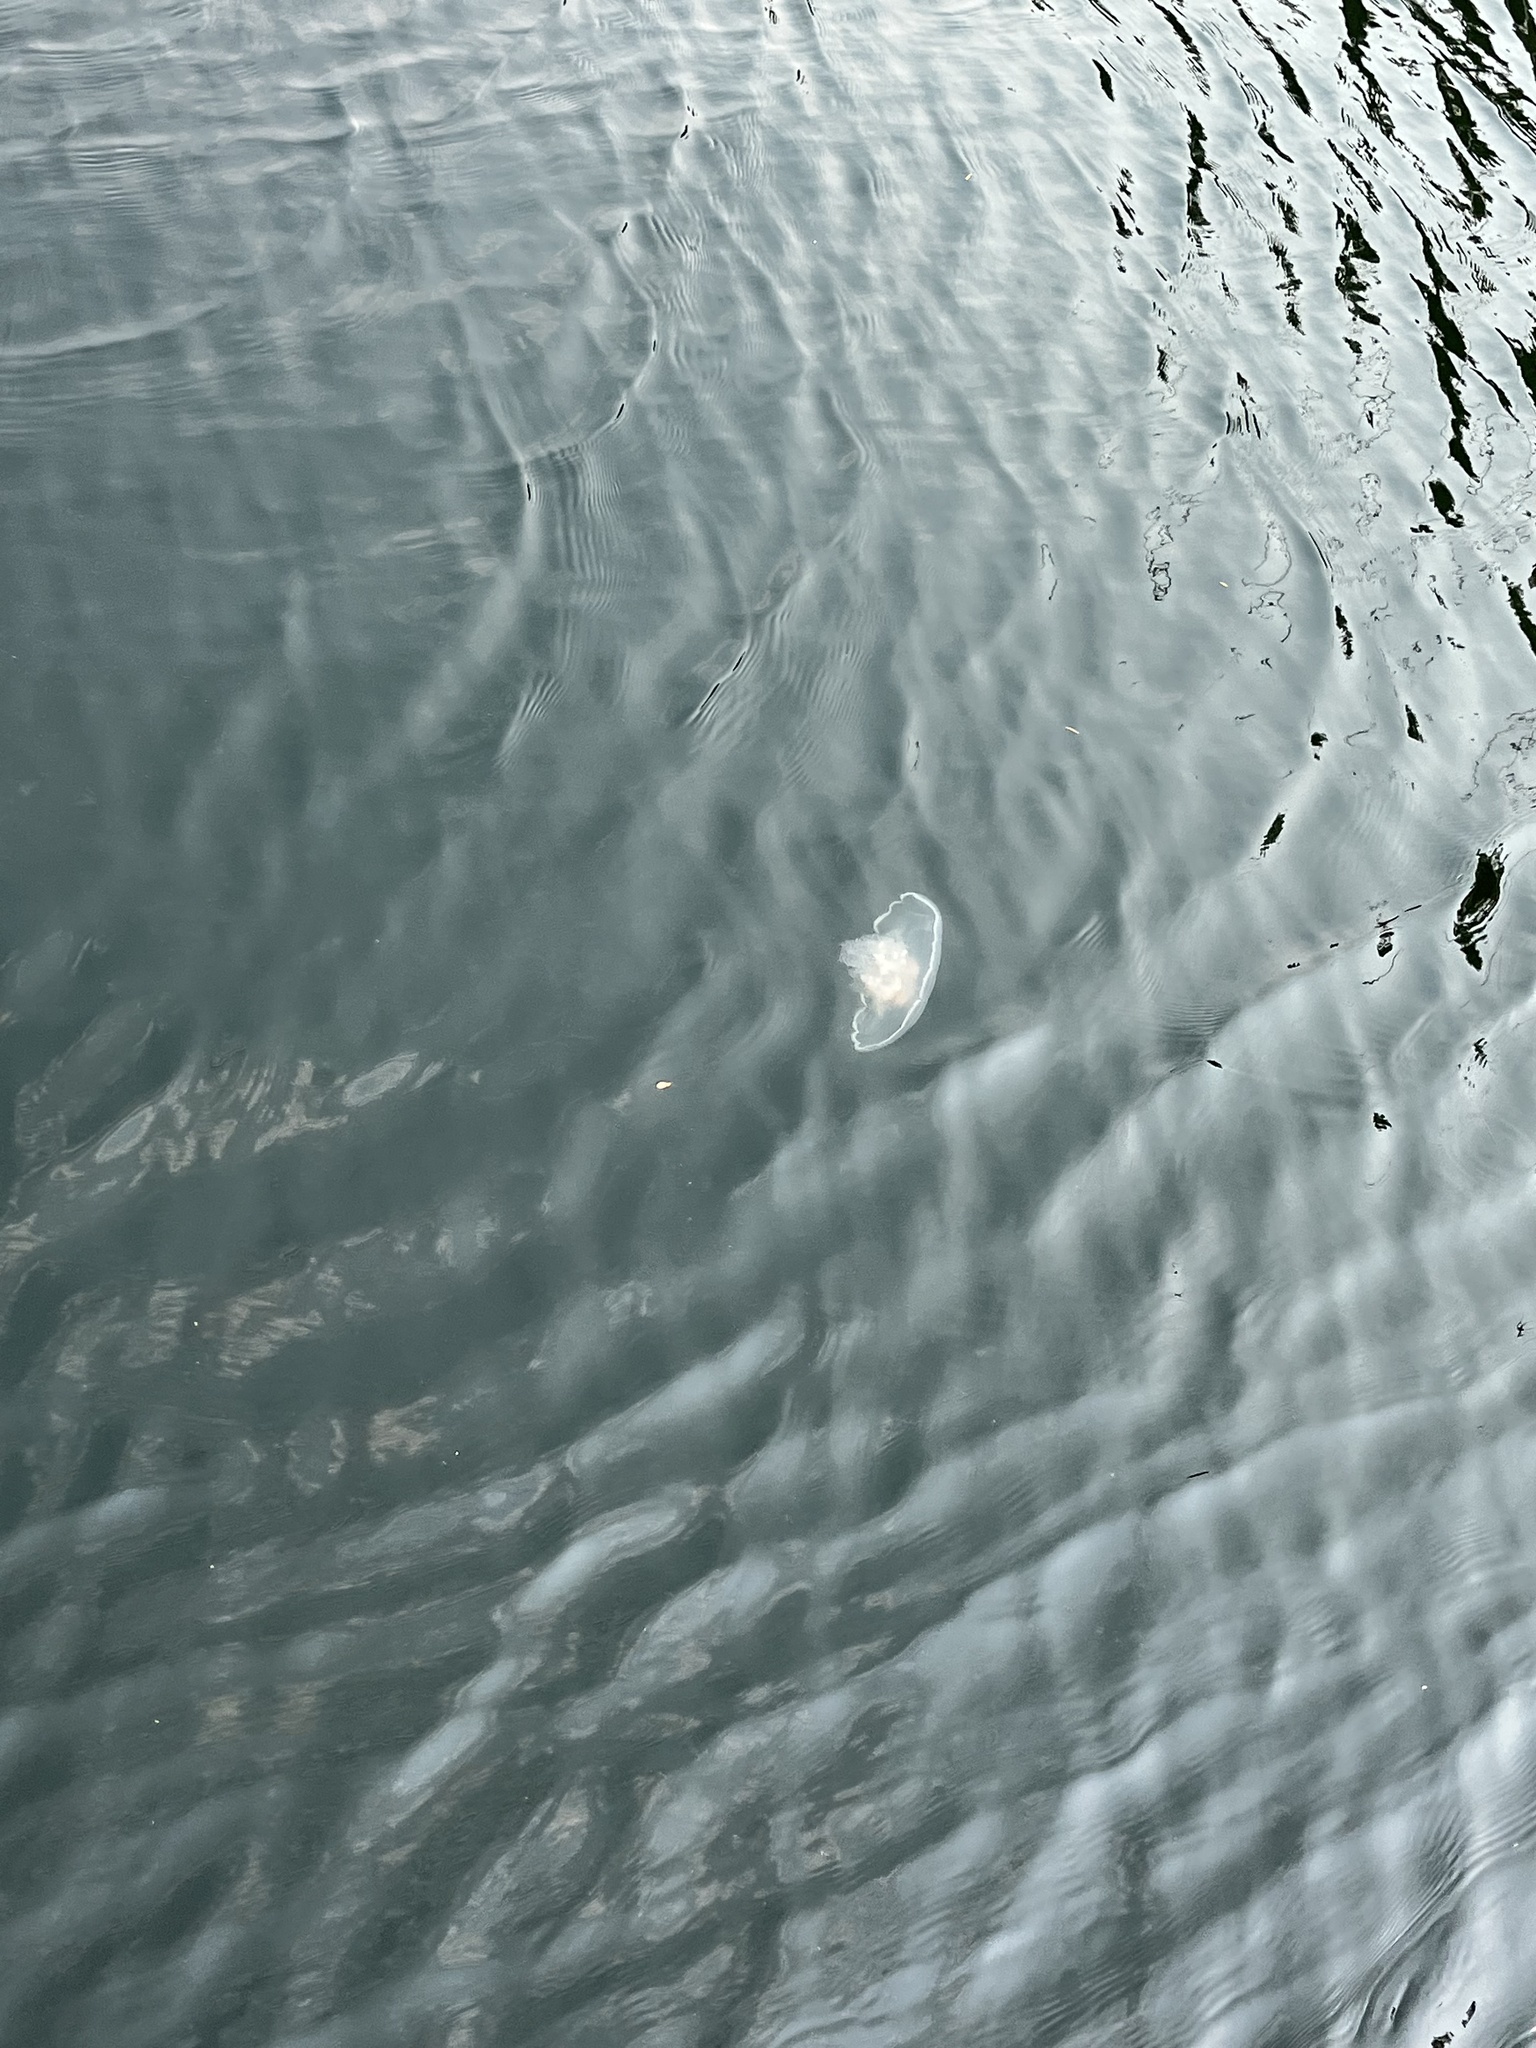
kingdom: Animalia
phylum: Cnidaria
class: Scyphozoa
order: Semaeostomeae
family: Ulmaridae
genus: Aurelia
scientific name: Aurelia labiata
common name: Pacific moon jelly
